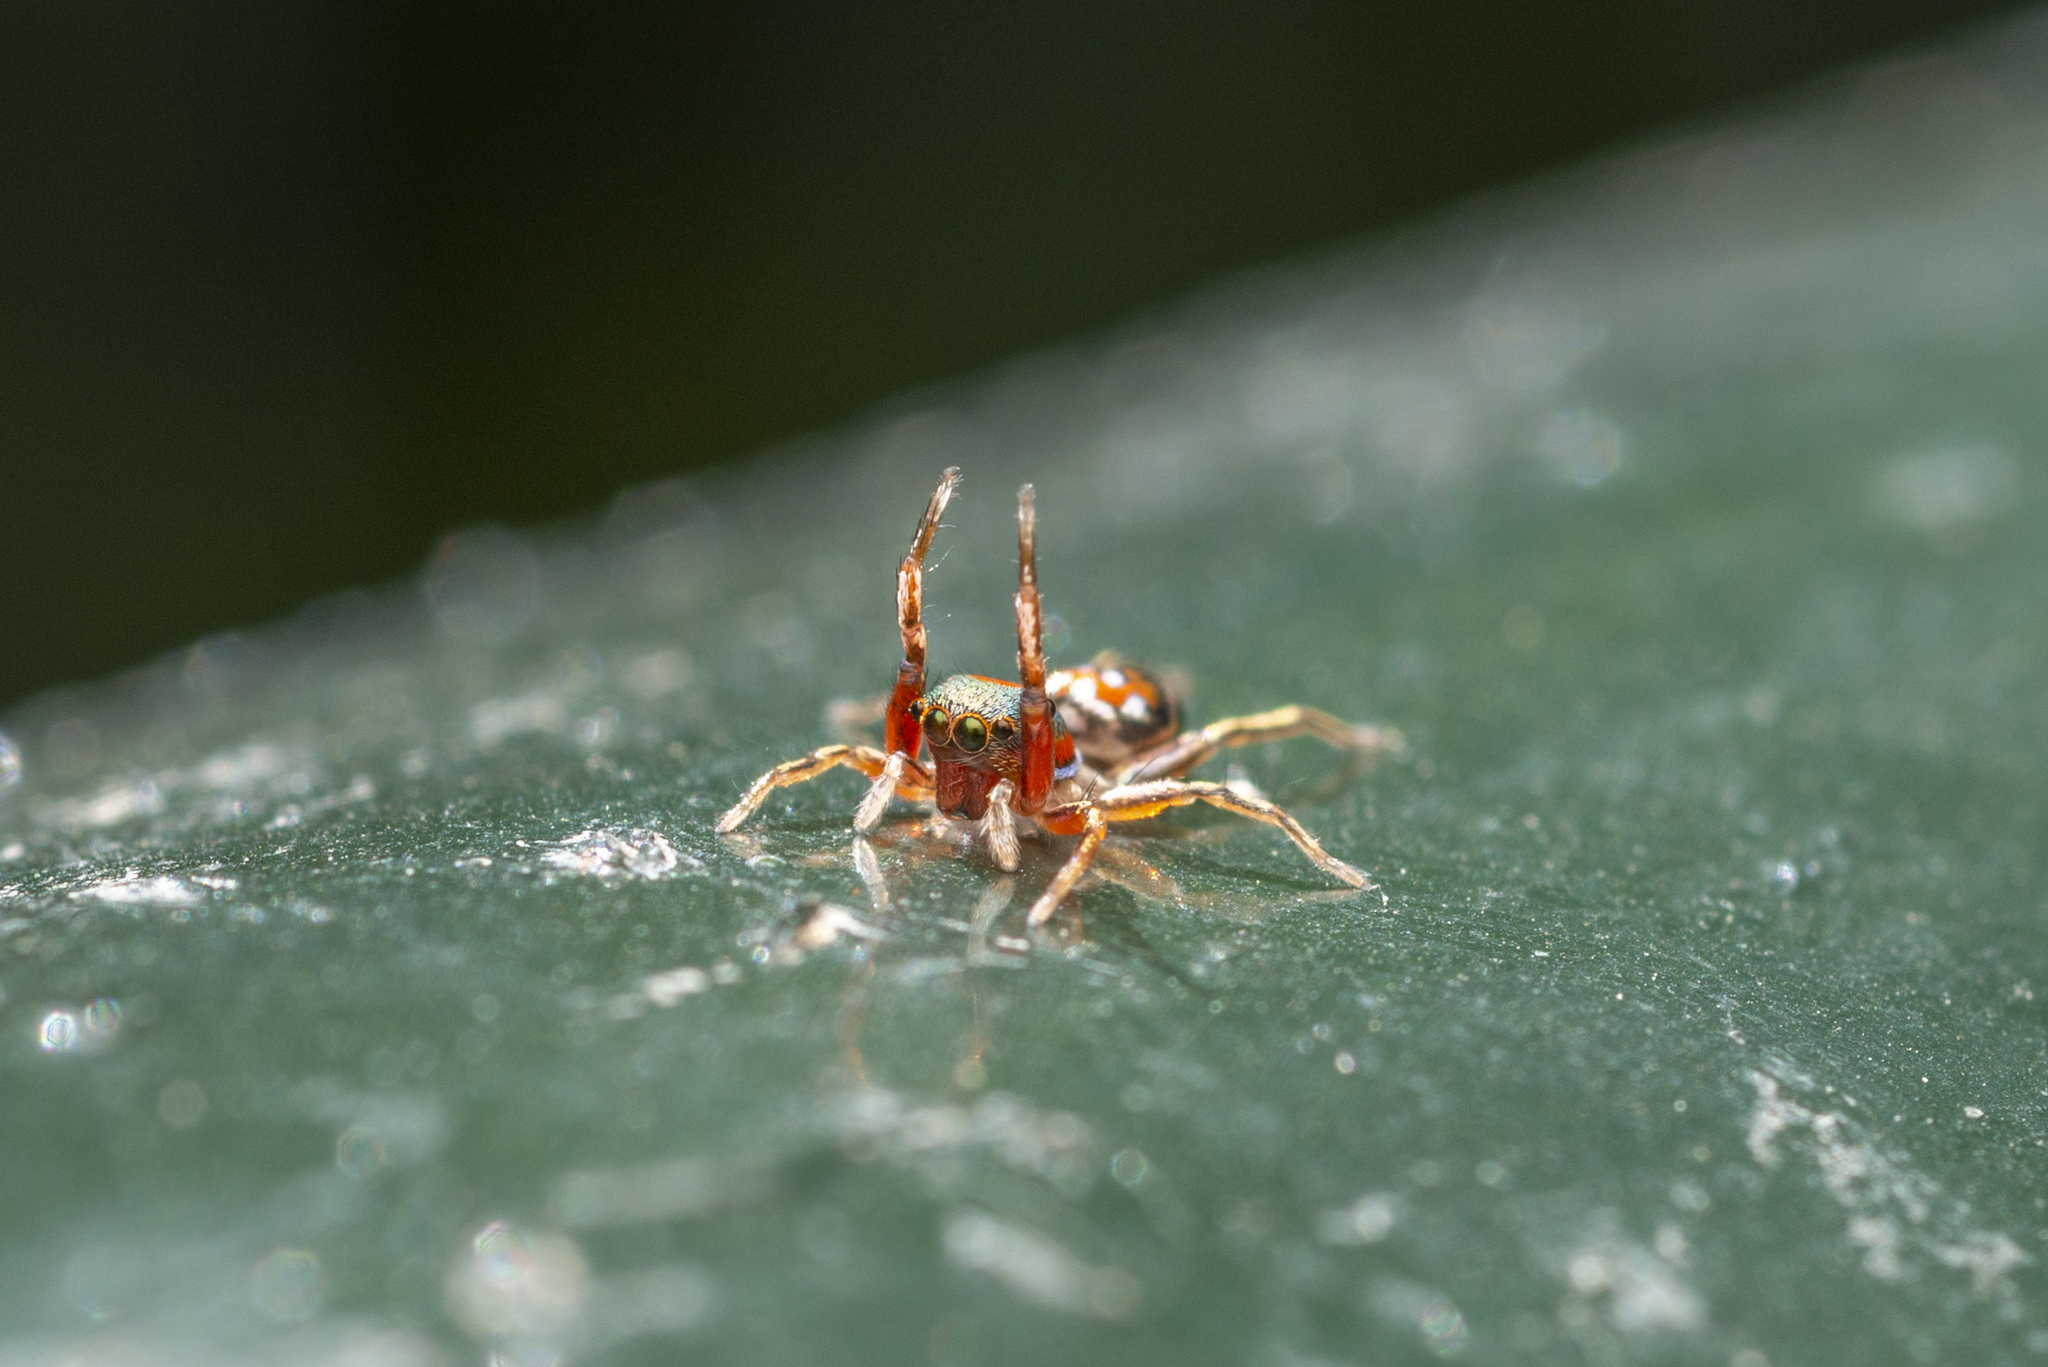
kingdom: Animalia
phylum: Arthropoda
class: Arachnida
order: Araneae
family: Salticidae
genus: Siler
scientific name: Siler collingwoodi
